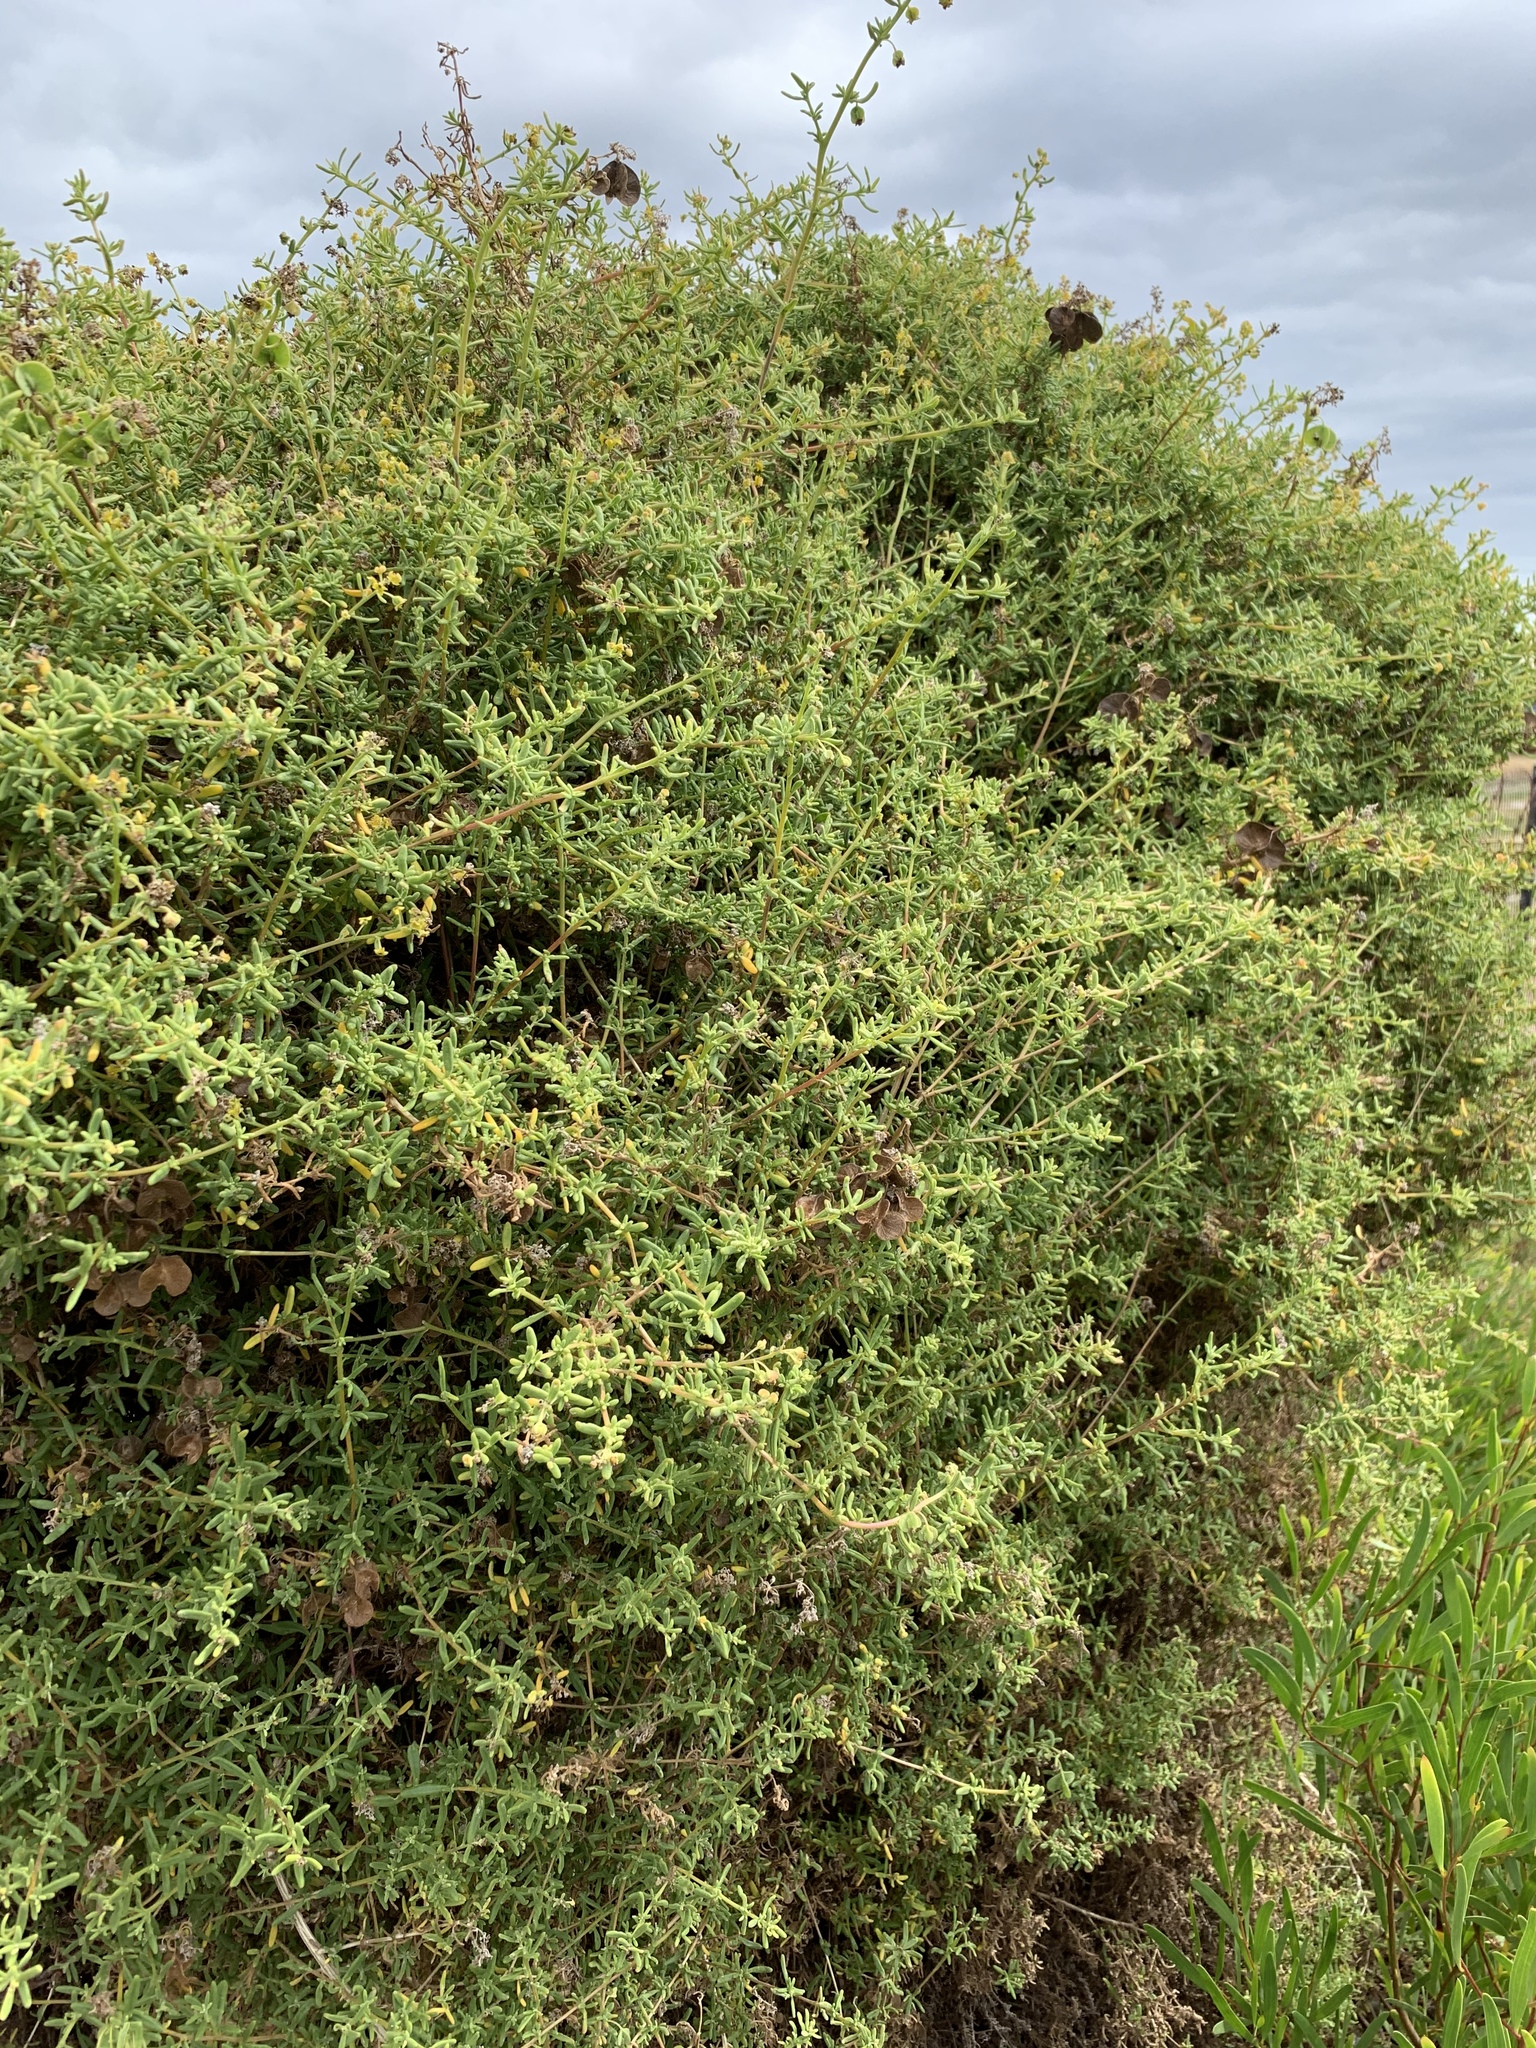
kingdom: Plantae
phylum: Tracheophyta
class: Magnoliopsida
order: Caryophyllales
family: Aizoaceae
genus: Tetragonia
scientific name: Tetragonia fruticosa
